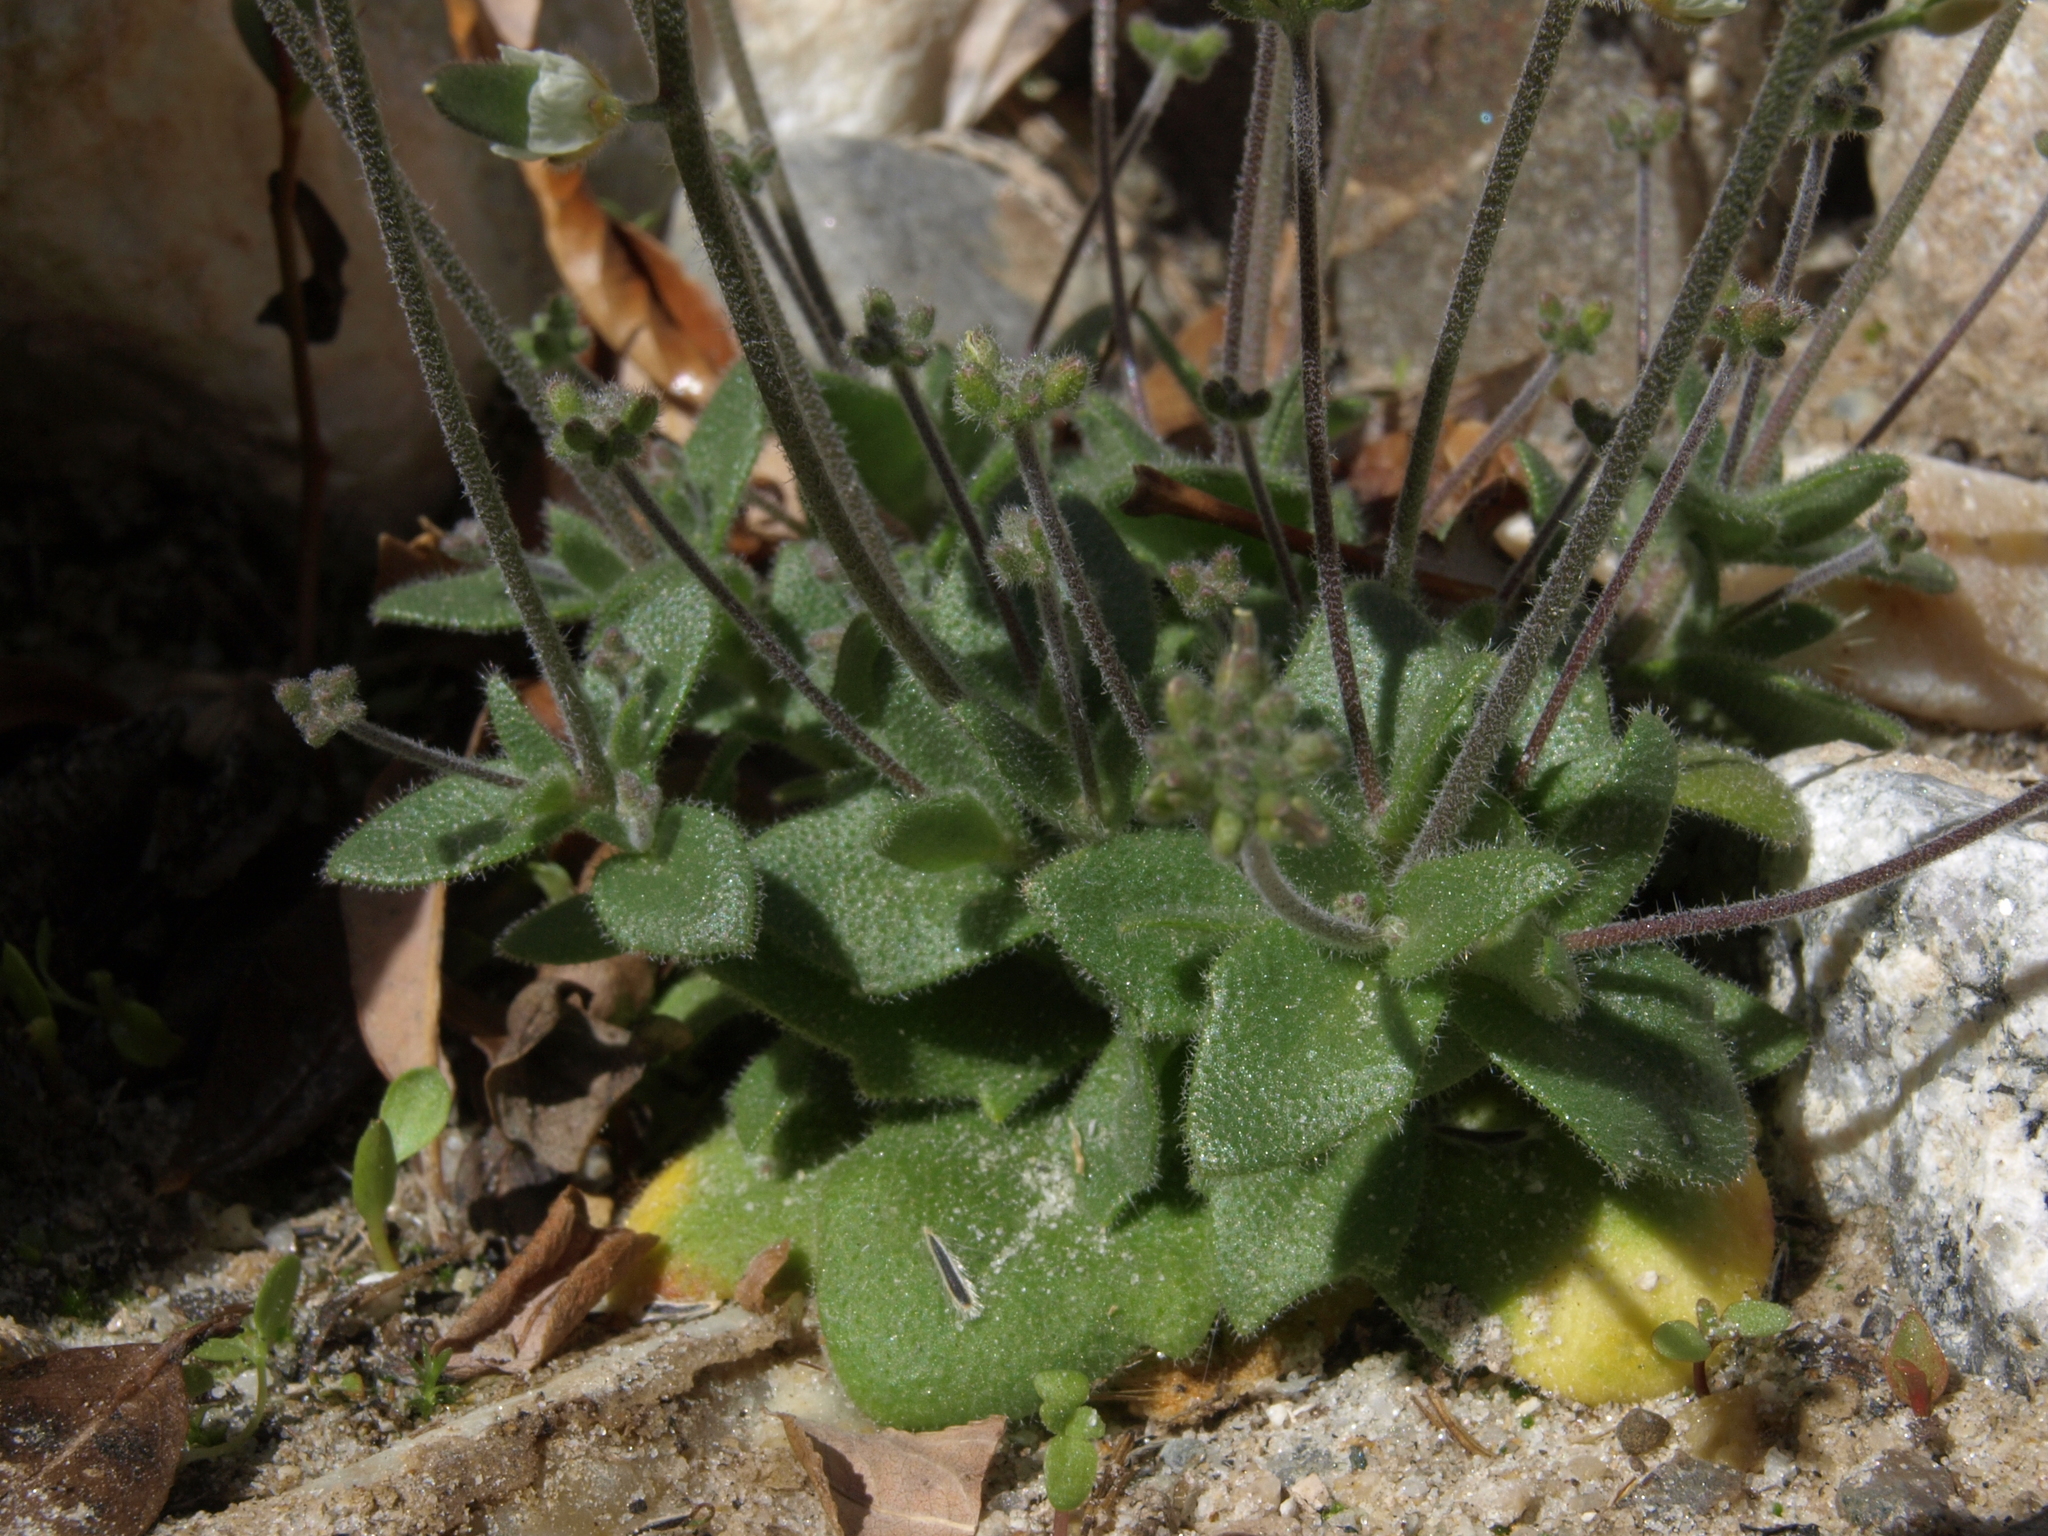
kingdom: Plantae
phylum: Tracheophyta
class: Magnoliopsida
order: Brassicales
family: Brassicaceae
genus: Tomostima
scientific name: Tomostima cuneifolia
